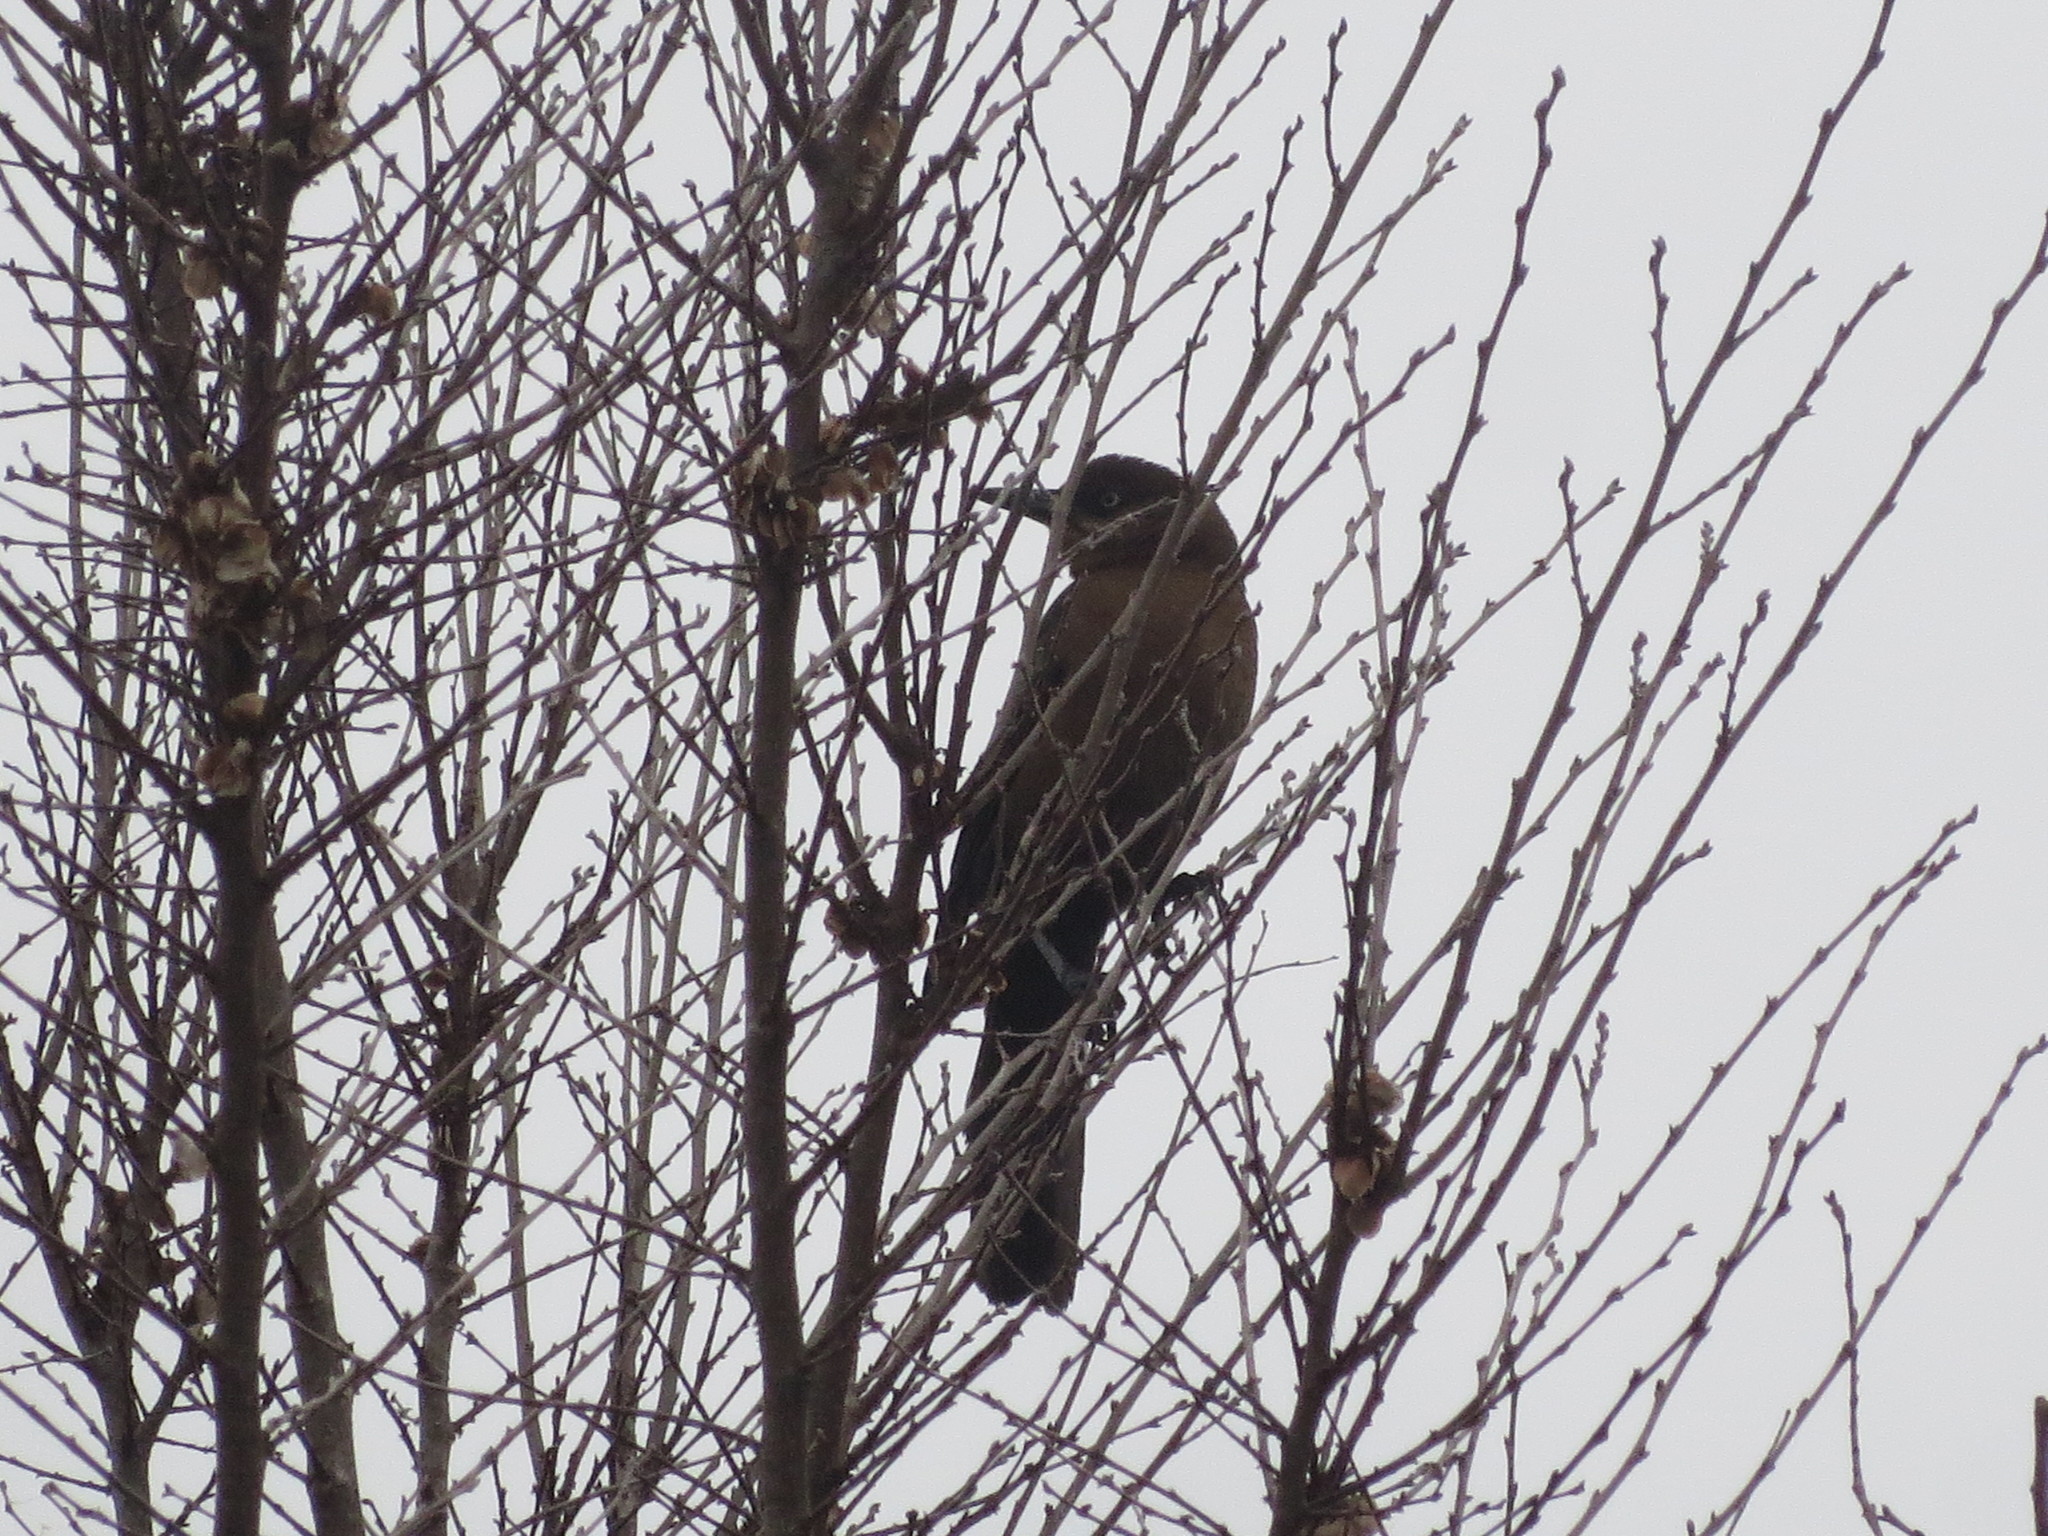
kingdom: Animalia
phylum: Chordata
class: Aves
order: Passeriformes
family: Icteridae
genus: Quiscalus
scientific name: Quiscalus major
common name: Boat-tailed grackle
